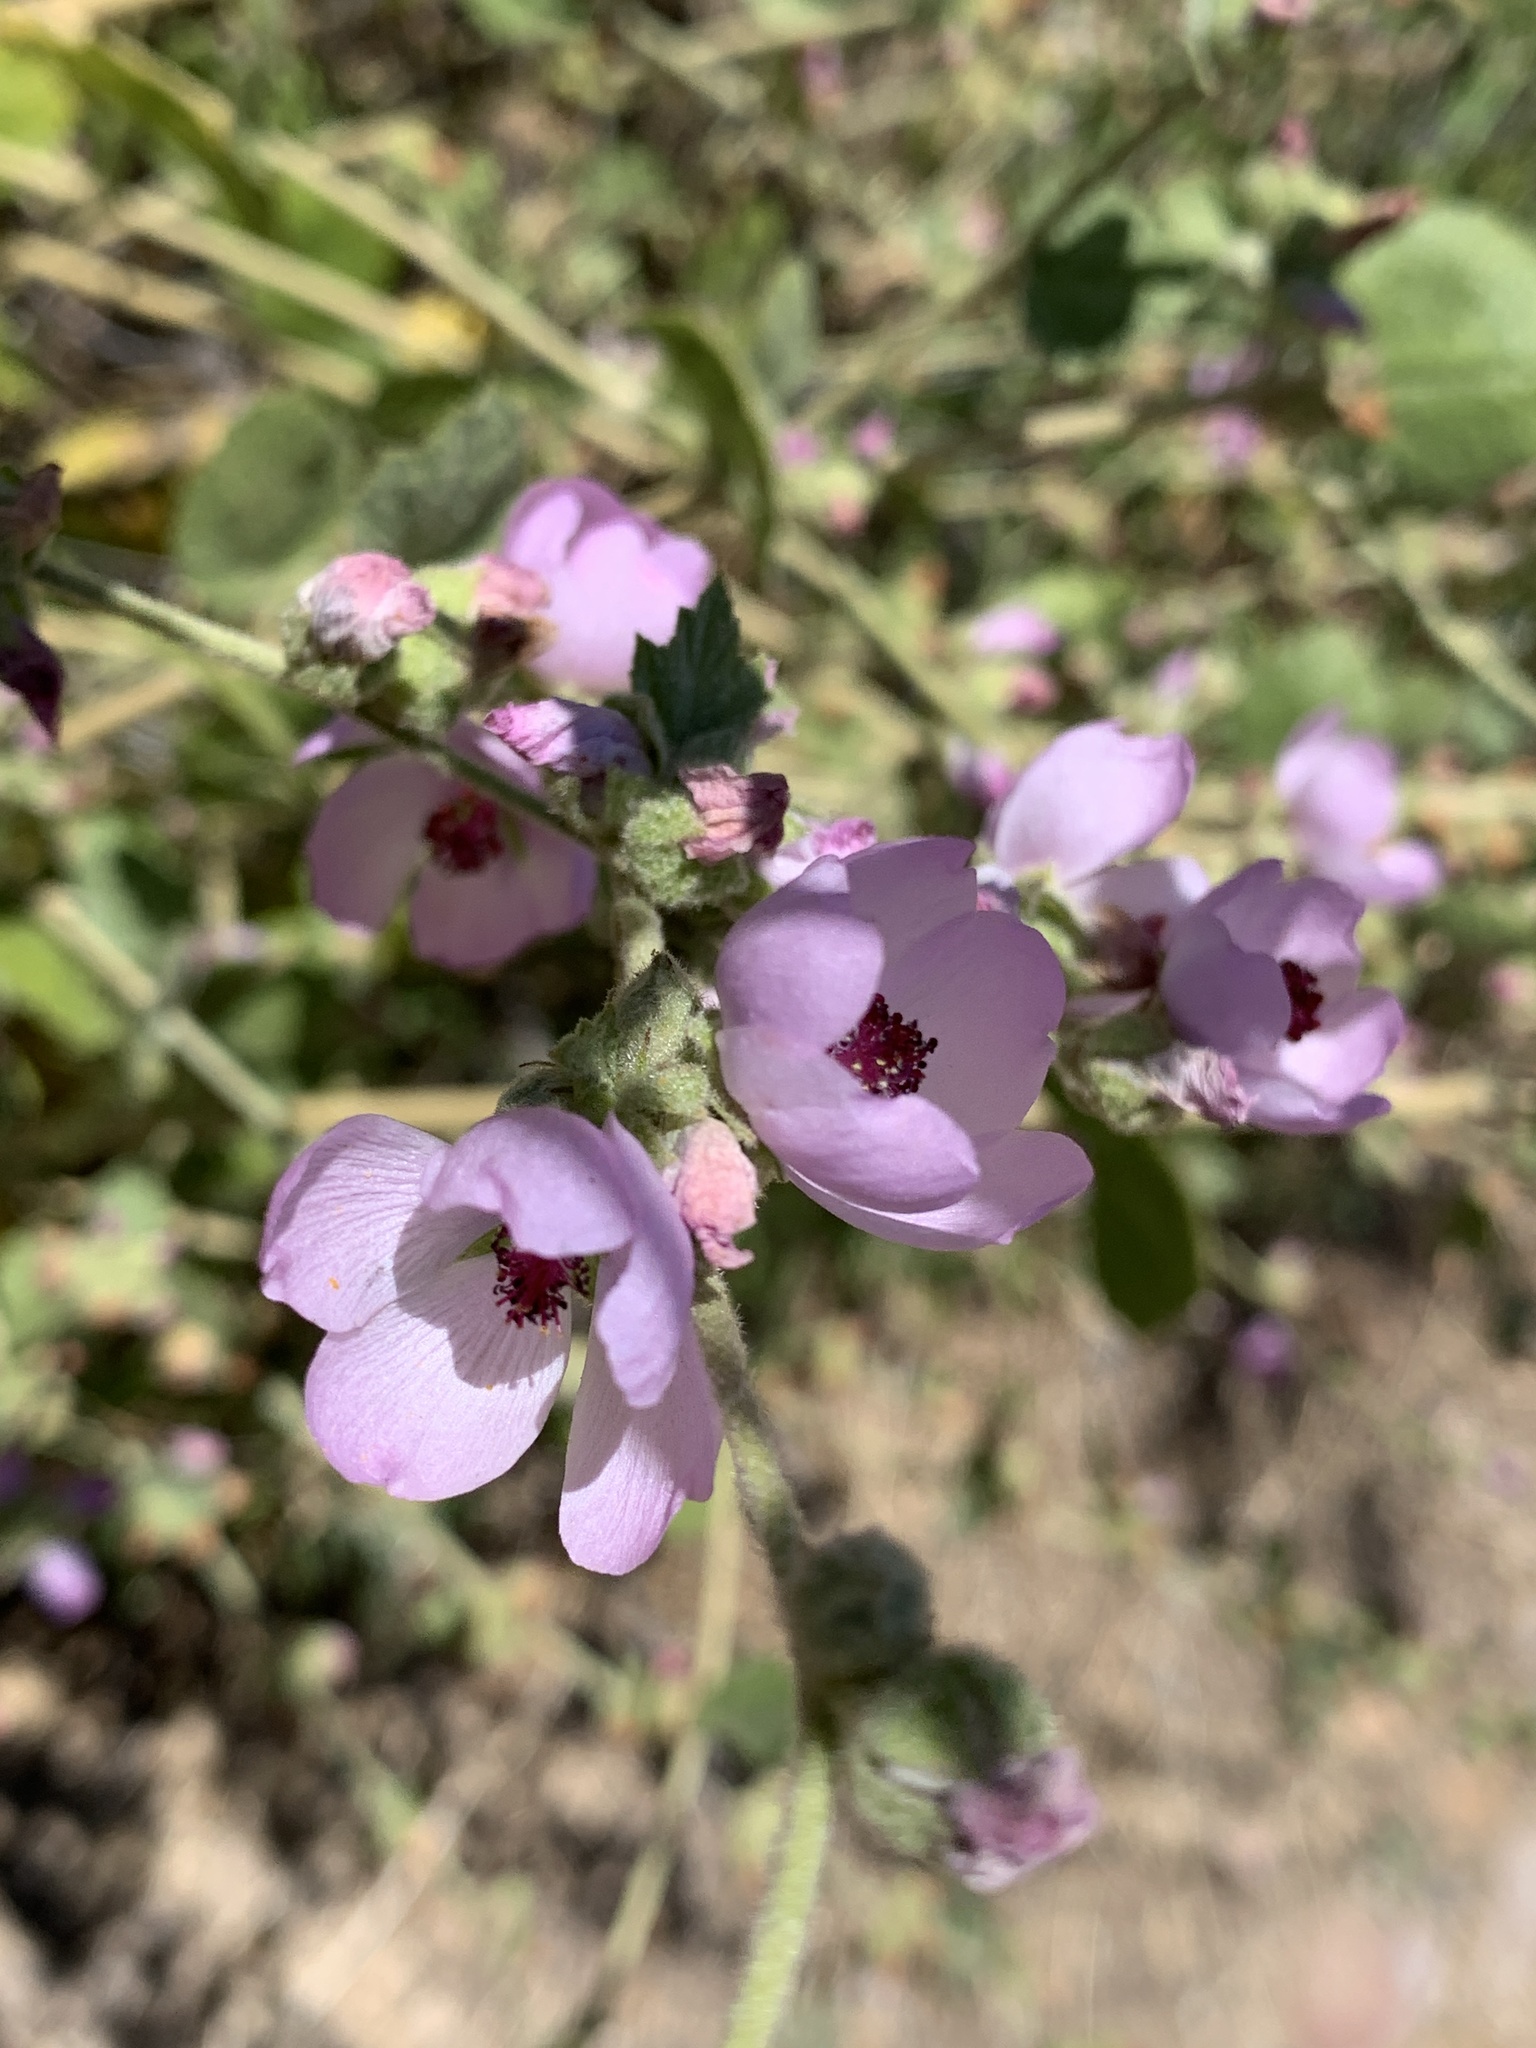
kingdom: Plantae
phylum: Tracheophyta
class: Magnoliopsida
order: Malvales
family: Malvaceae
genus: Malacothamnus
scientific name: Malacothamnus fasciculatus
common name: Sant cruz island bush-mallow
